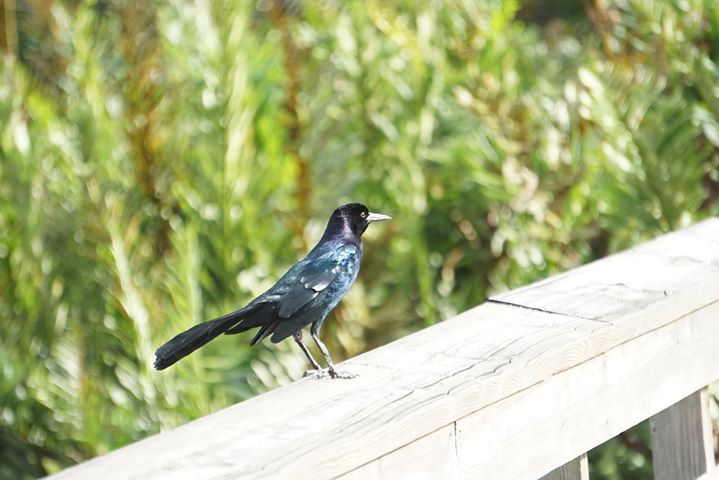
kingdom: Animalia
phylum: Chordata
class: Aves
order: Passeriformes
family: Icteridae
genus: Quiscalus
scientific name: Quiscalus major
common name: Boat-tailed grackle
